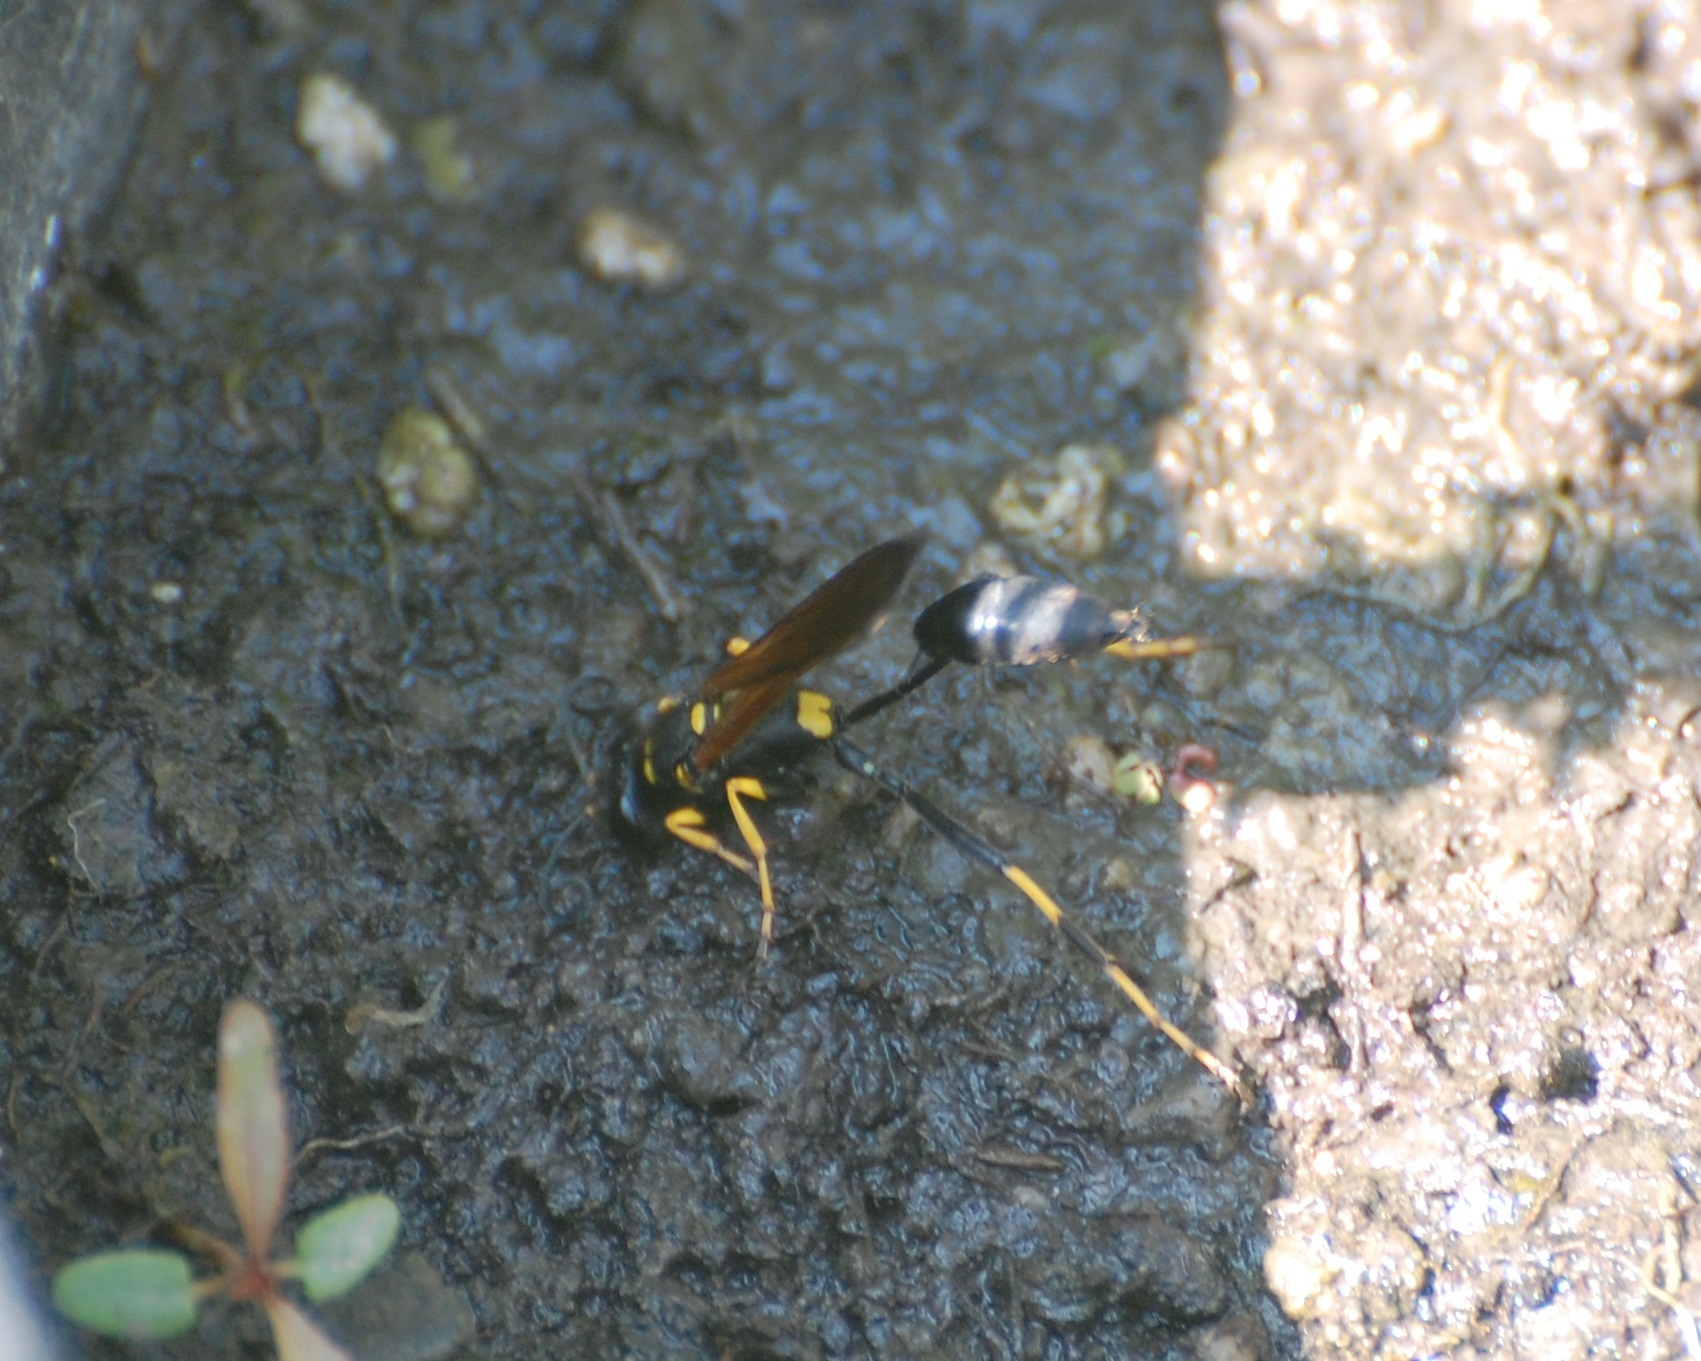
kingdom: Animalia
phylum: Arthropoda
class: Insecta
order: Hymenoptera
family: Sphecidae
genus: Sceliphron
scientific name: Sceliphron caementarium
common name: Mud dauber
